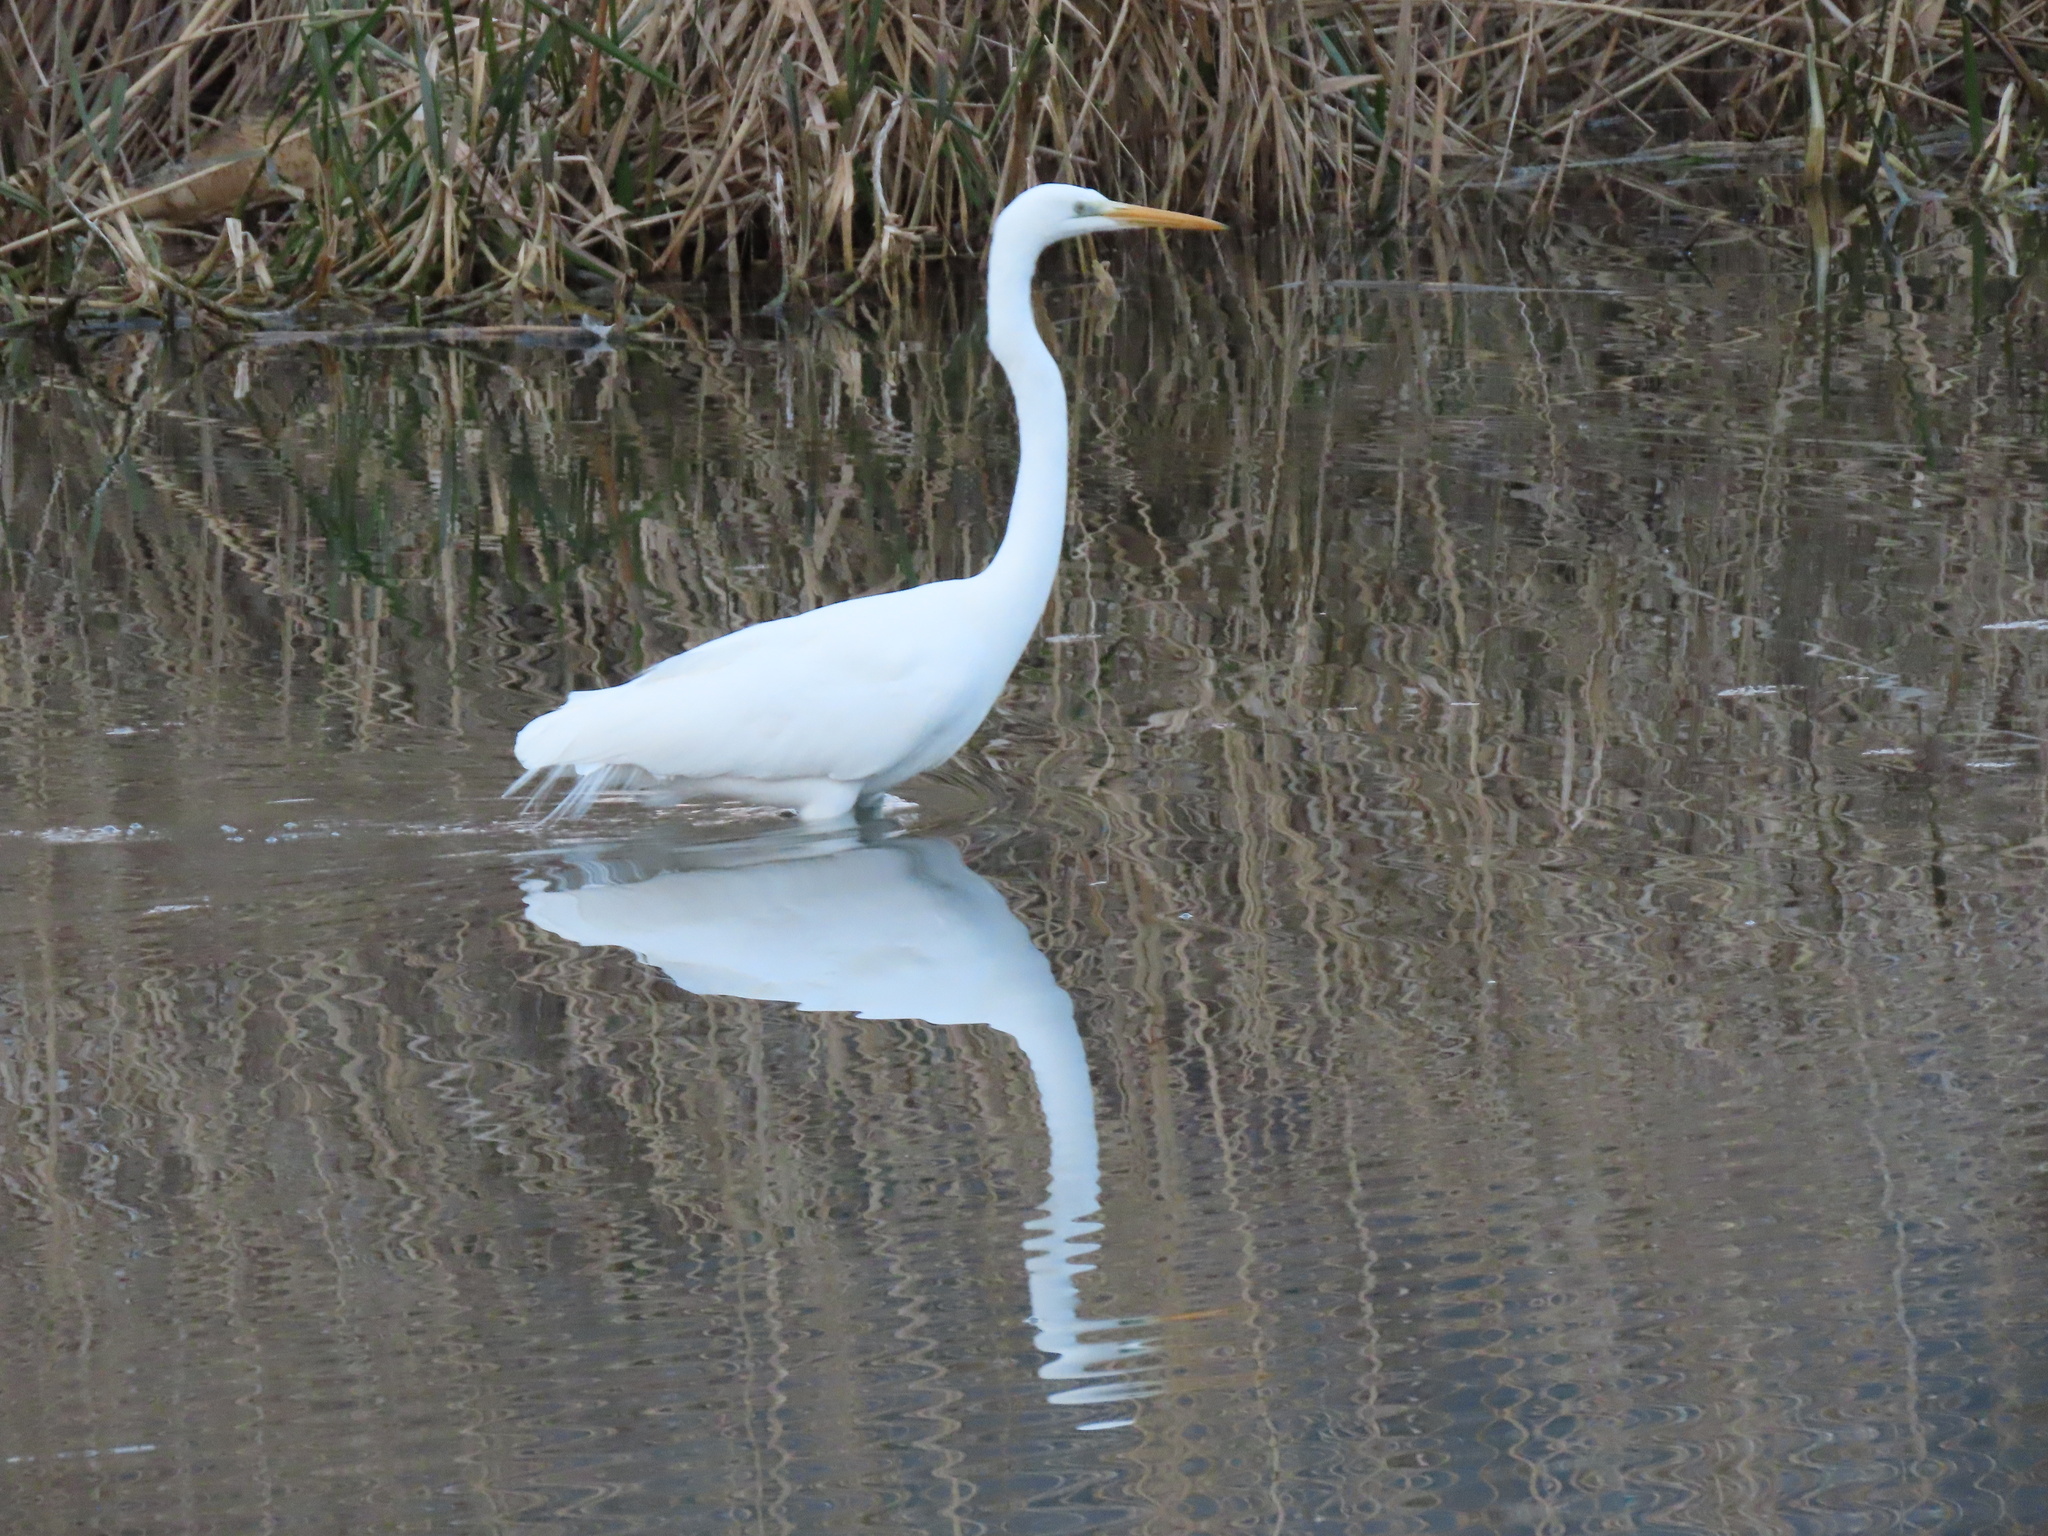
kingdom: Animalia
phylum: Chordata
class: Aves
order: Pelecaniformes
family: Ardeidae
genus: Ardea
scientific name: Ardea alba
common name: Great egret
